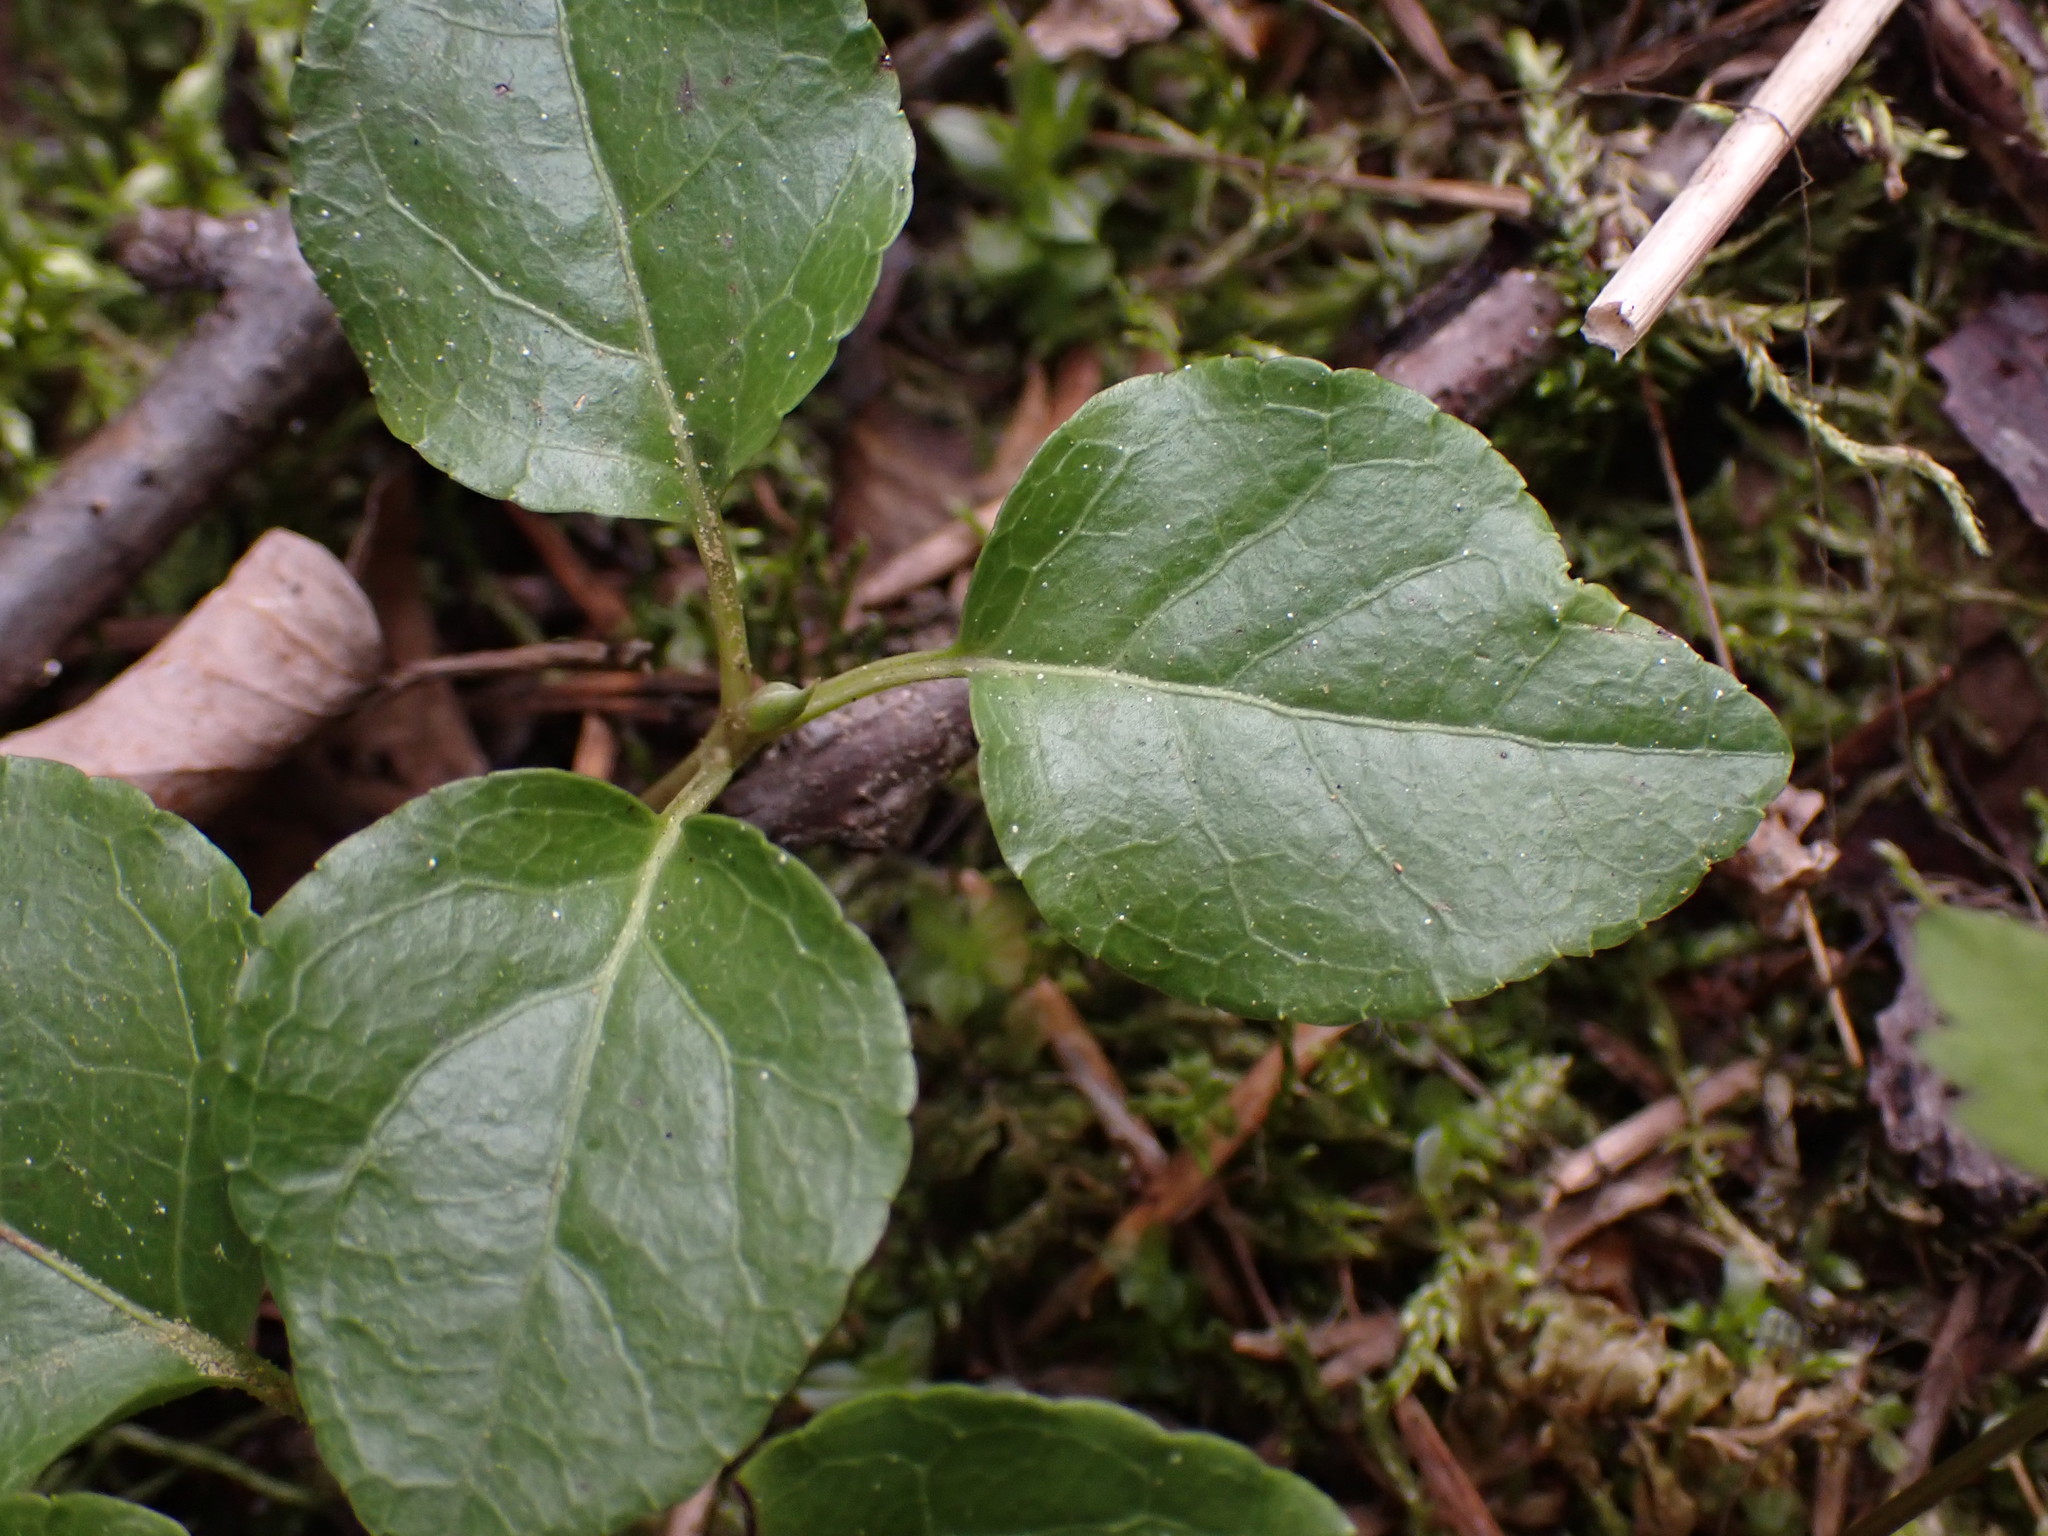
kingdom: Plantae
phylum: Tracheophyta
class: Magnoliopsida
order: Ericales
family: Ericaceae
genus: Orthilia
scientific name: Orthilia secunda
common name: One-sided orthilia
